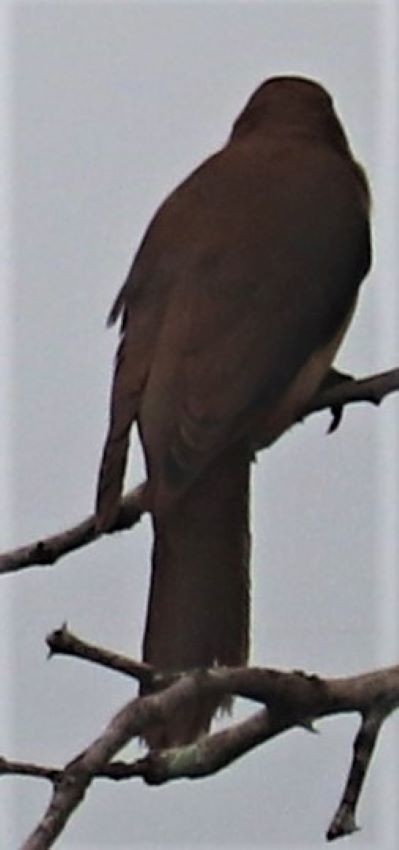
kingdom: Animalia
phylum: Chordata
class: Aves
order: Passeriformes
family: Buphagidae
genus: Buphagus
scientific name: Buphagus erythrorhynchus
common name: Red-billed oxpecker
